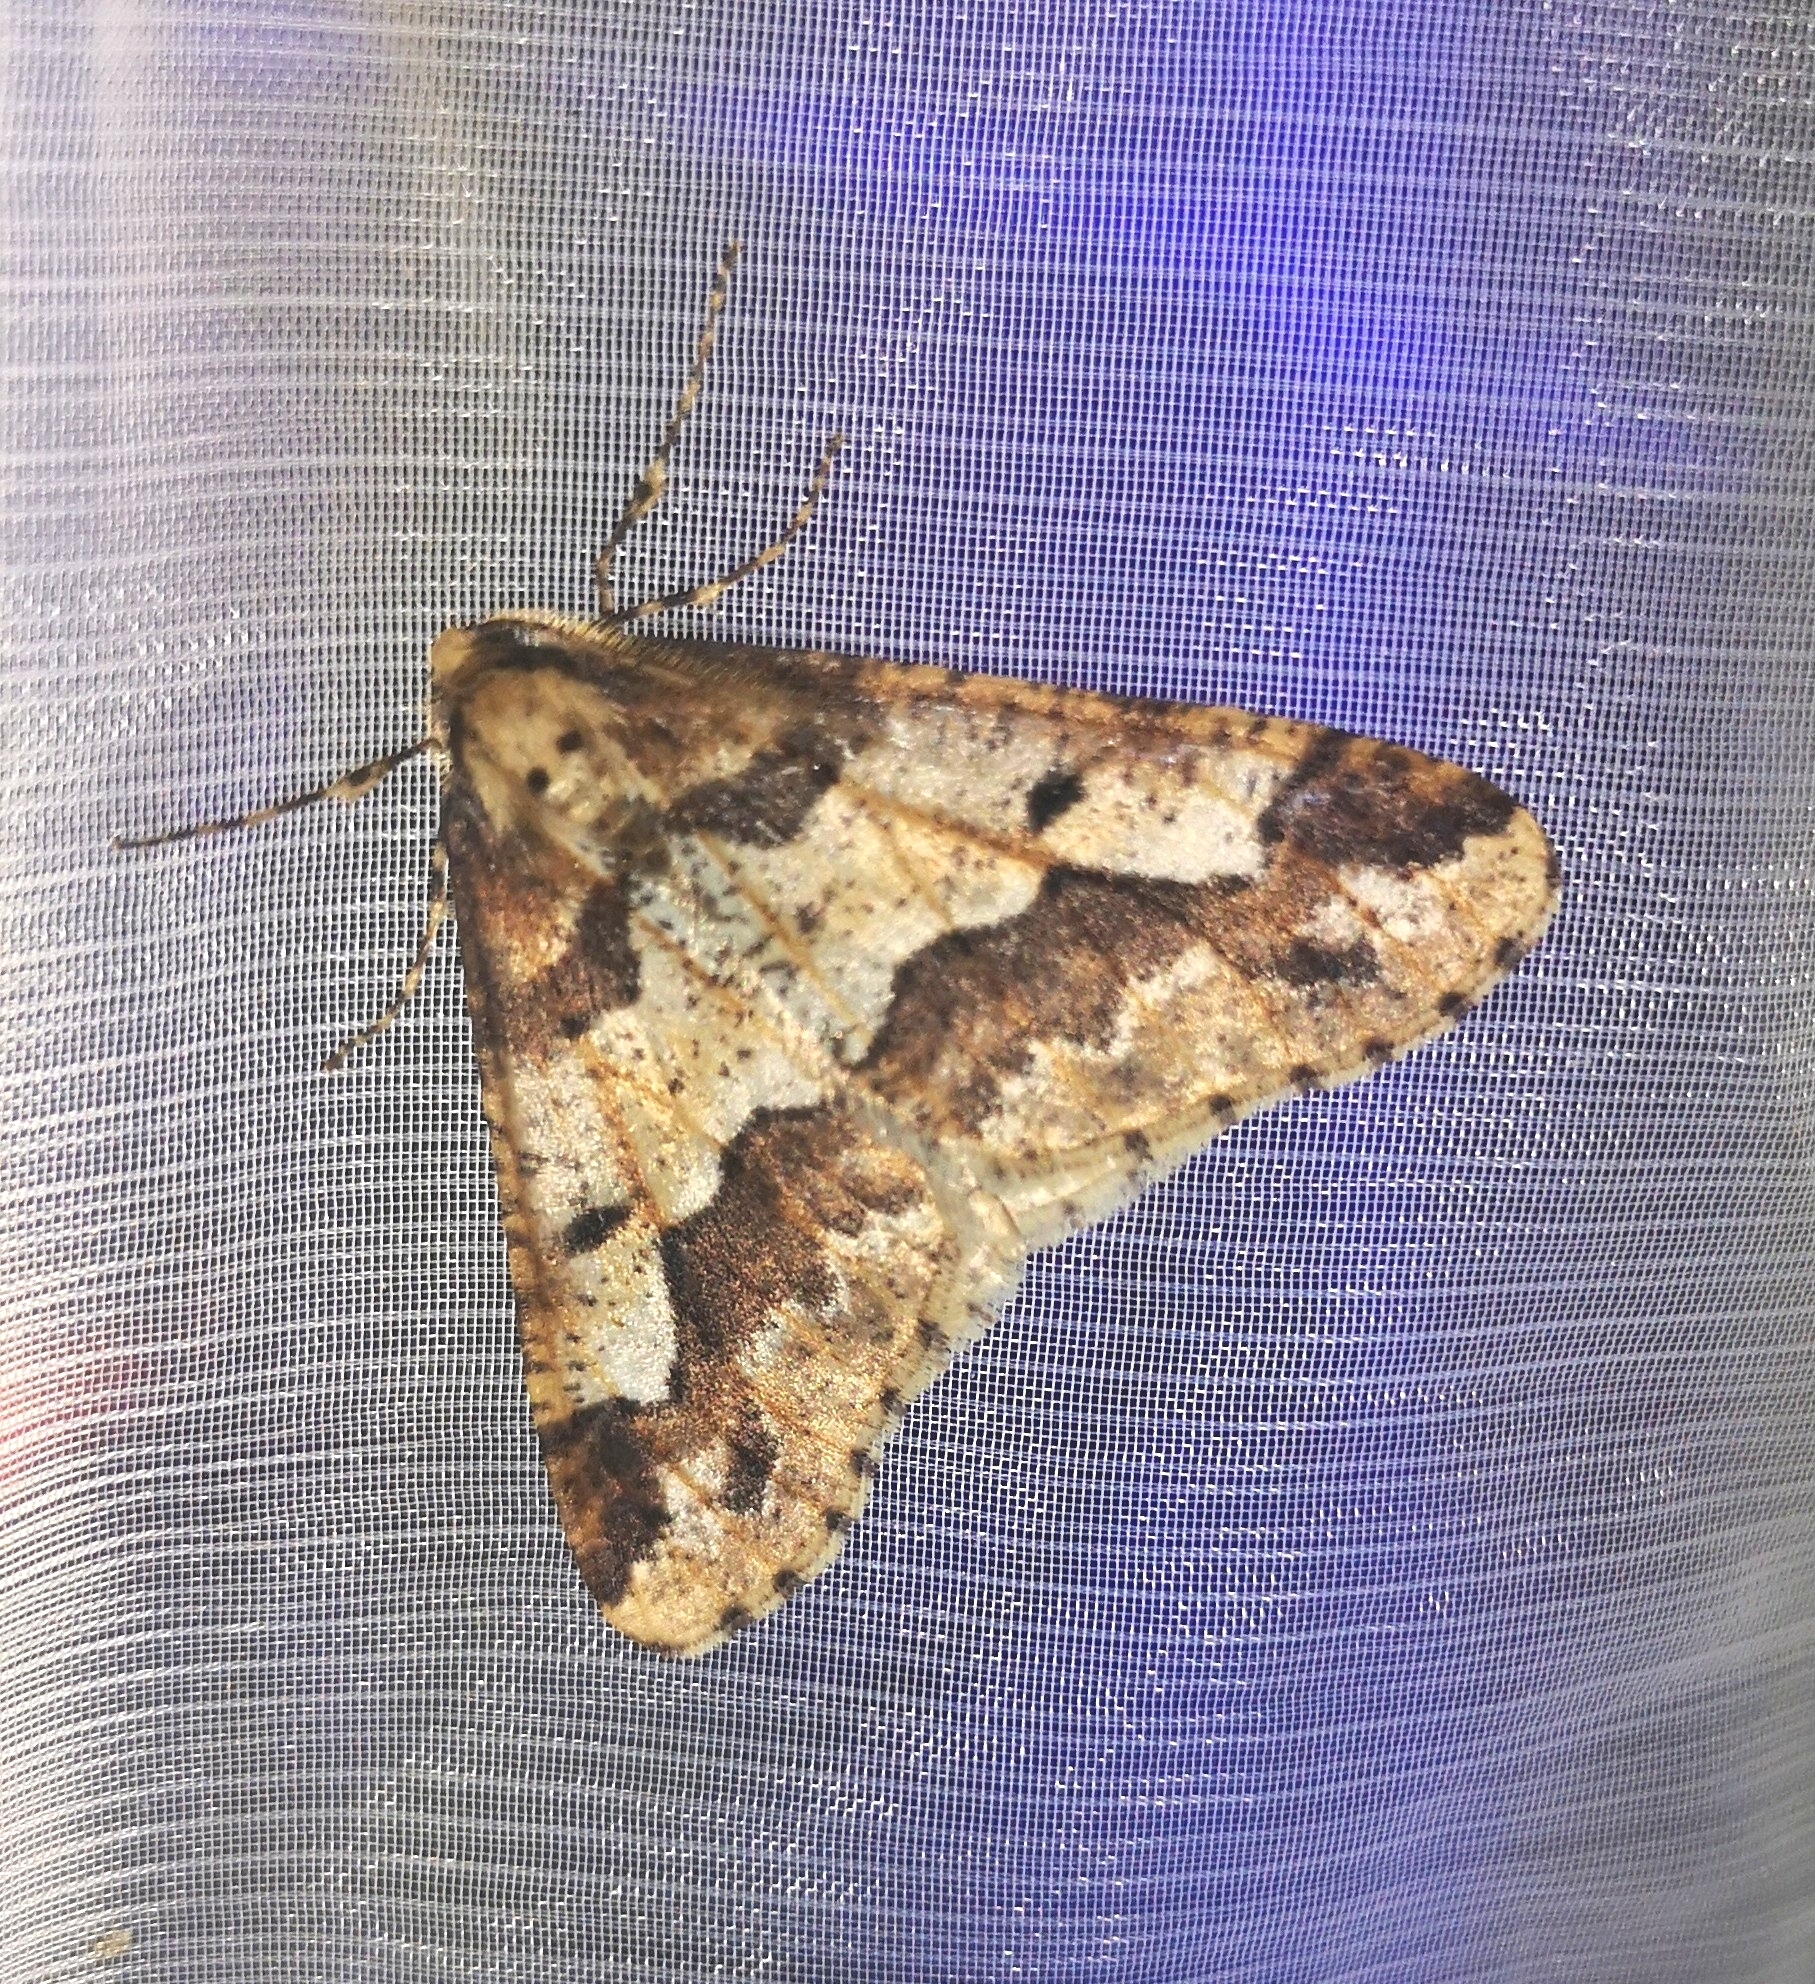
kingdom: Animalia
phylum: Arthropoda
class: Insecta
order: Lepidoptera
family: Geometridae
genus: Erannis
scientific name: Erannis defoliaria
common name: Mottled umber
